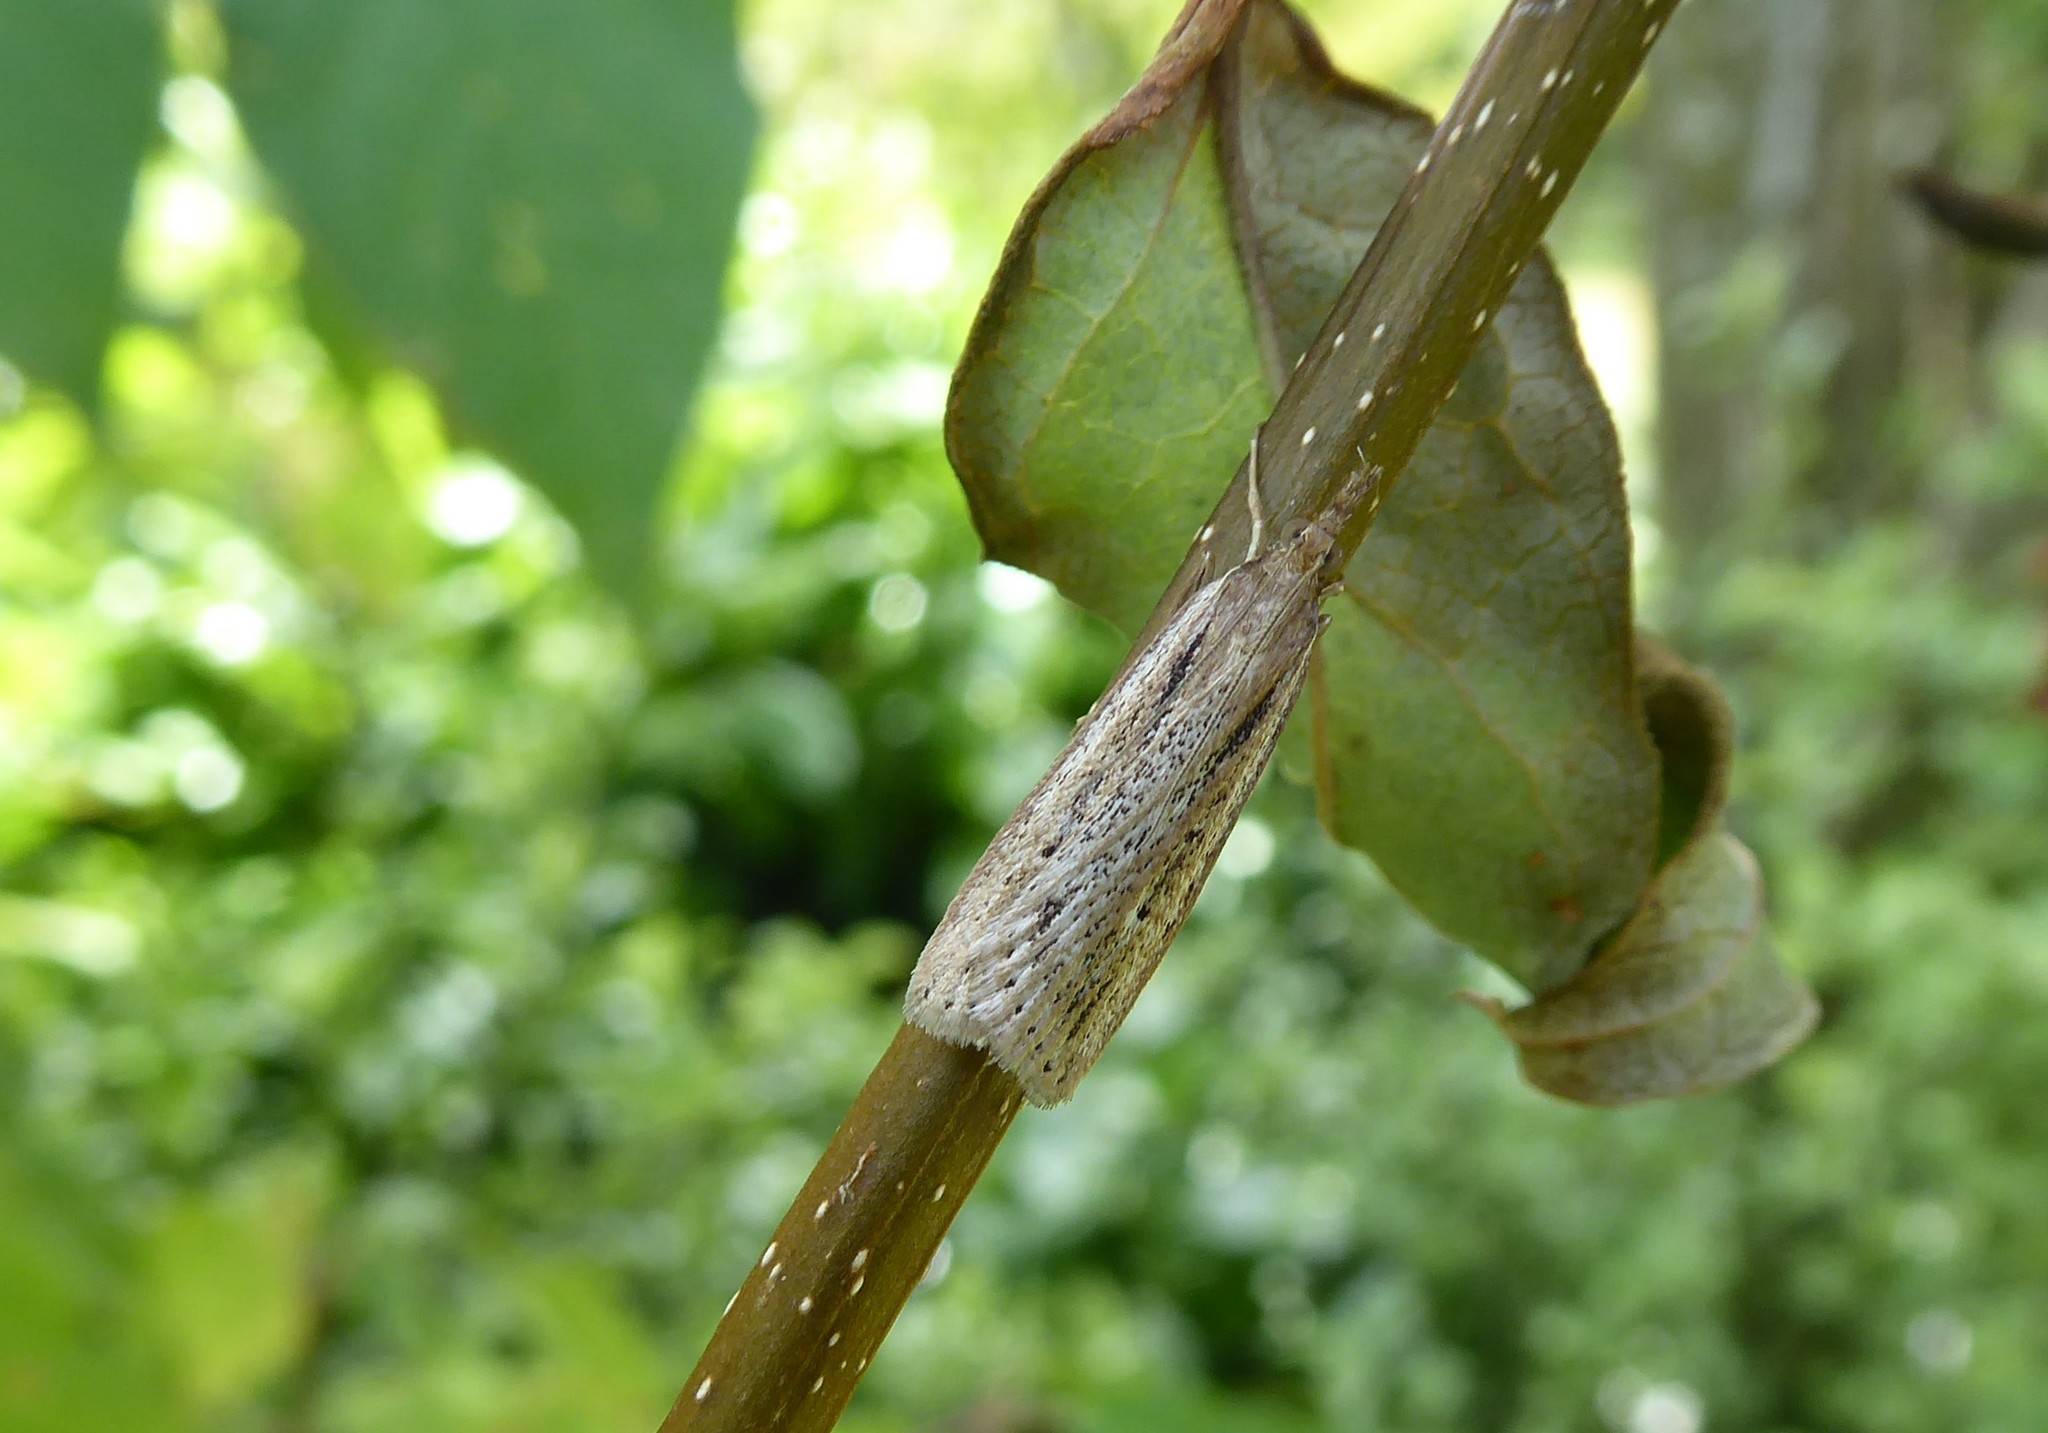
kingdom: Animalia
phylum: Arthropoda
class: Insecta
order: Lepidoptera
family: Crambidae
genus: Eudonia
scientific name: Eudonia sabulosella
